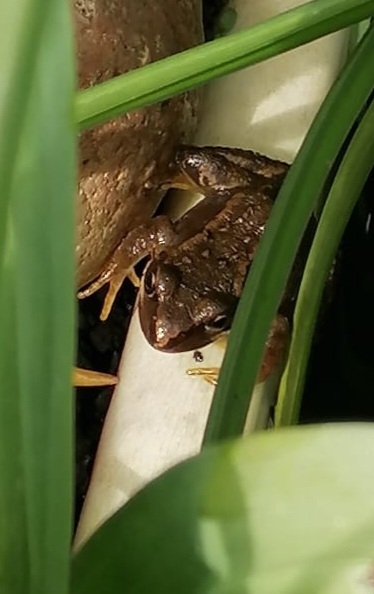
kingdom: Animalia
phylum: Chordata
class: Amphibia
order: Anura
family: Ranidae
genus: Rana
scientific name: Rana temporaria
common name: Common frog
